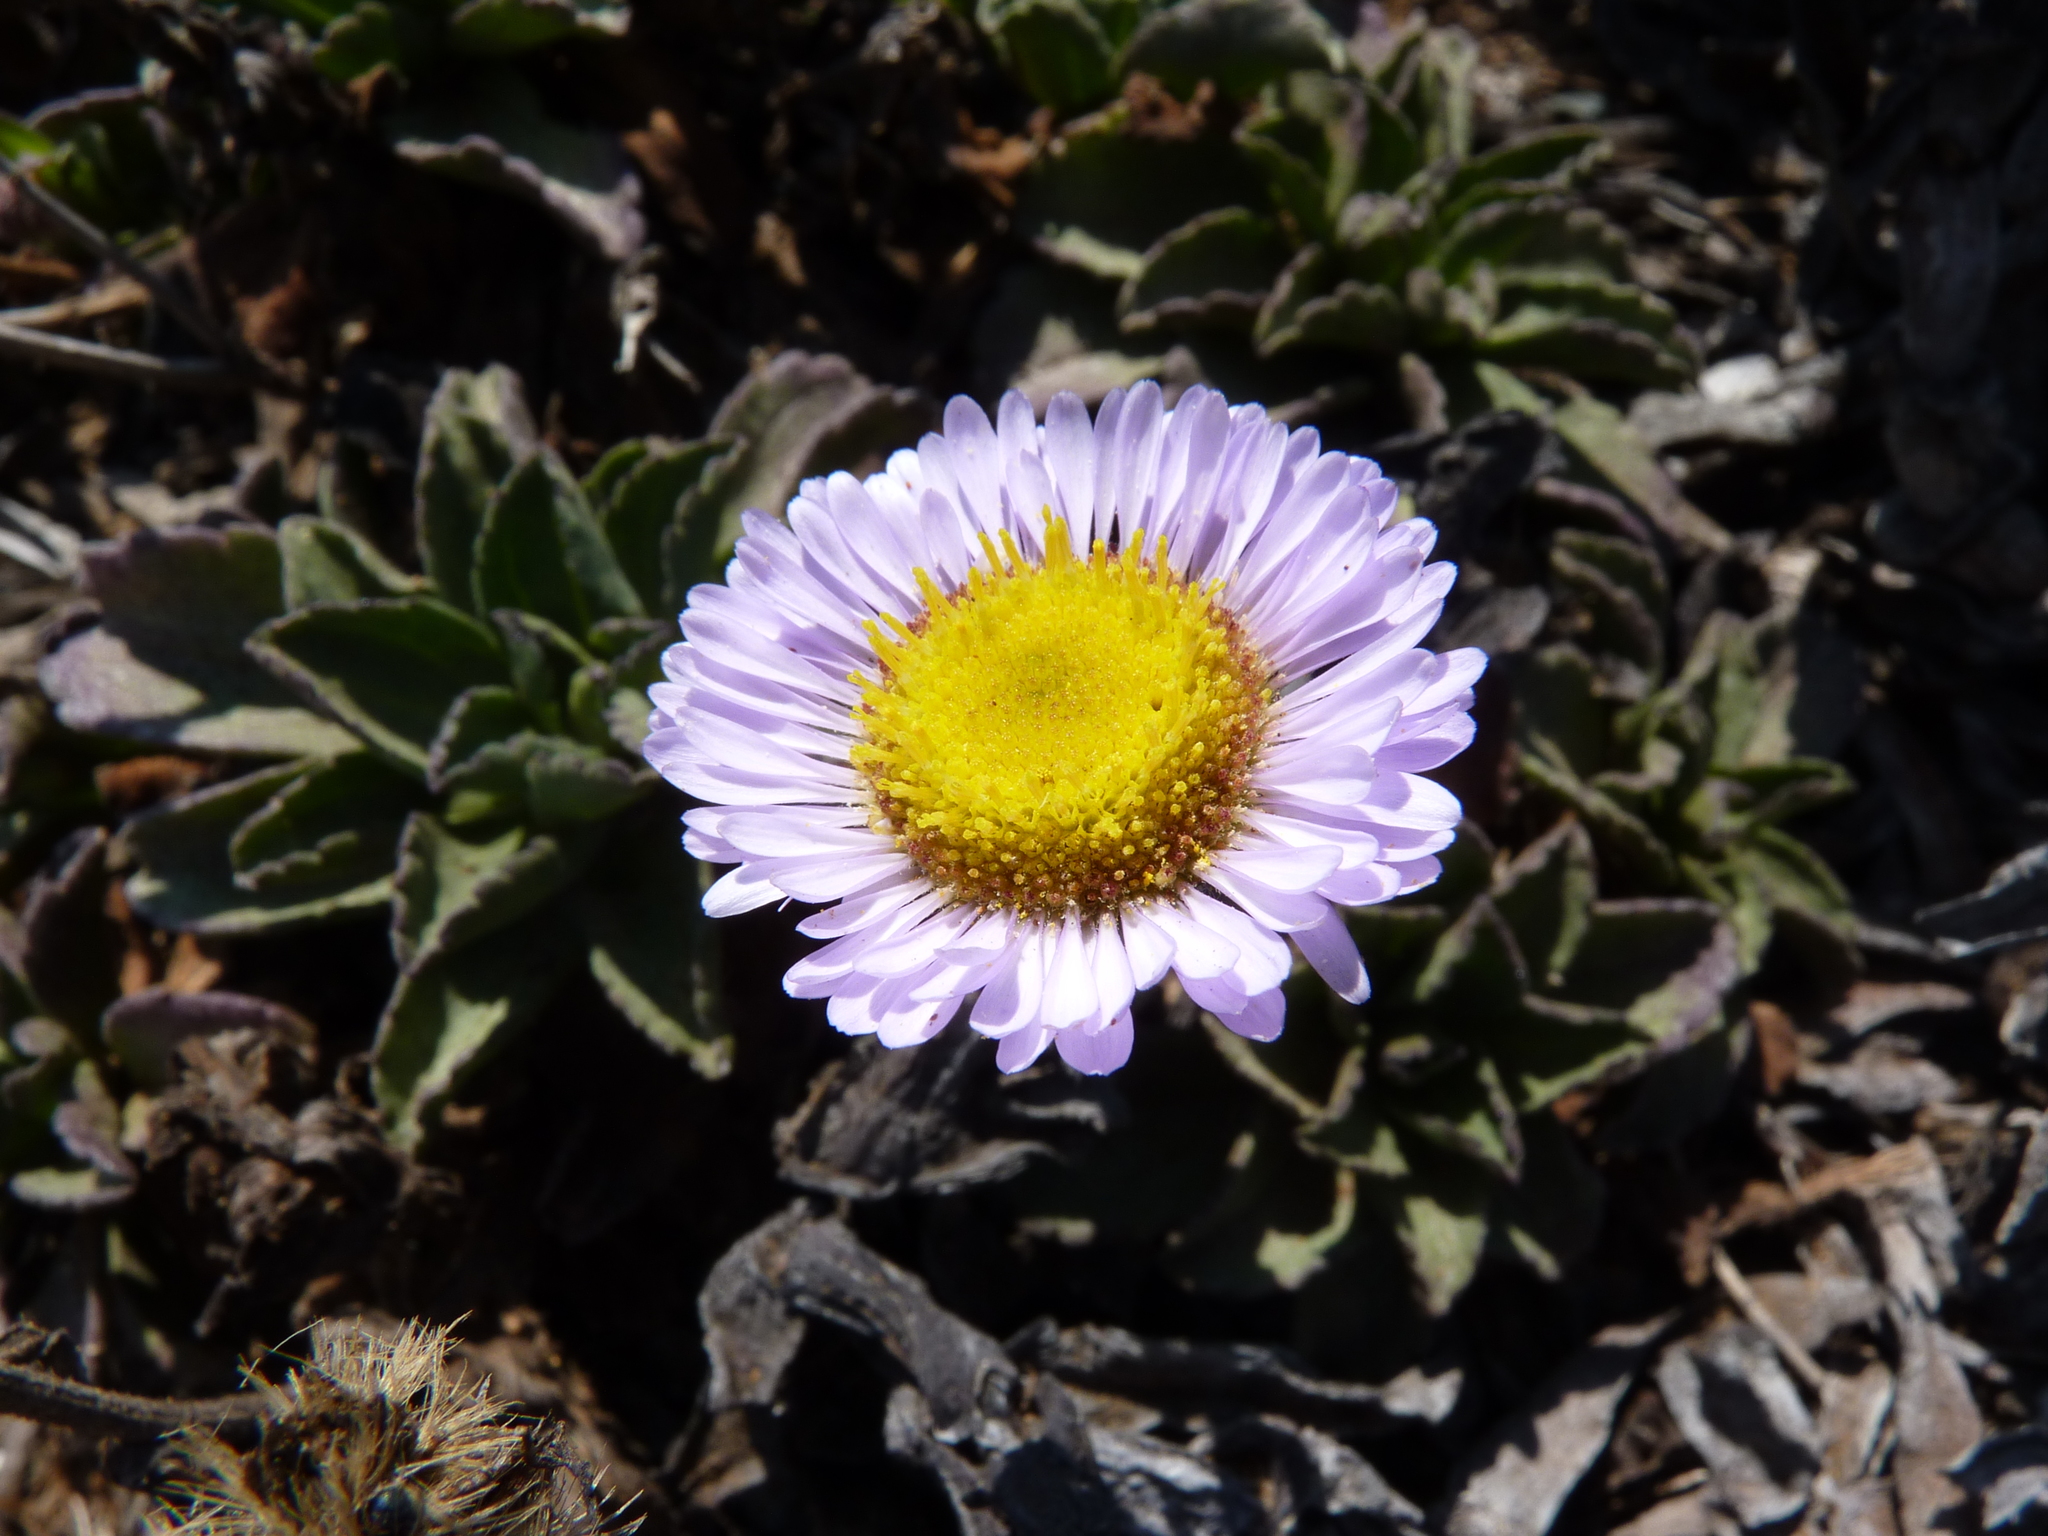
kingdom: Plantae
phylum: Tracheophyta
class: Magnoliopsida
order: Asterales
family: Asteraceae
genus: Erigeron
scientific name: Erigeron glaucus
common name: Seaside daisy
